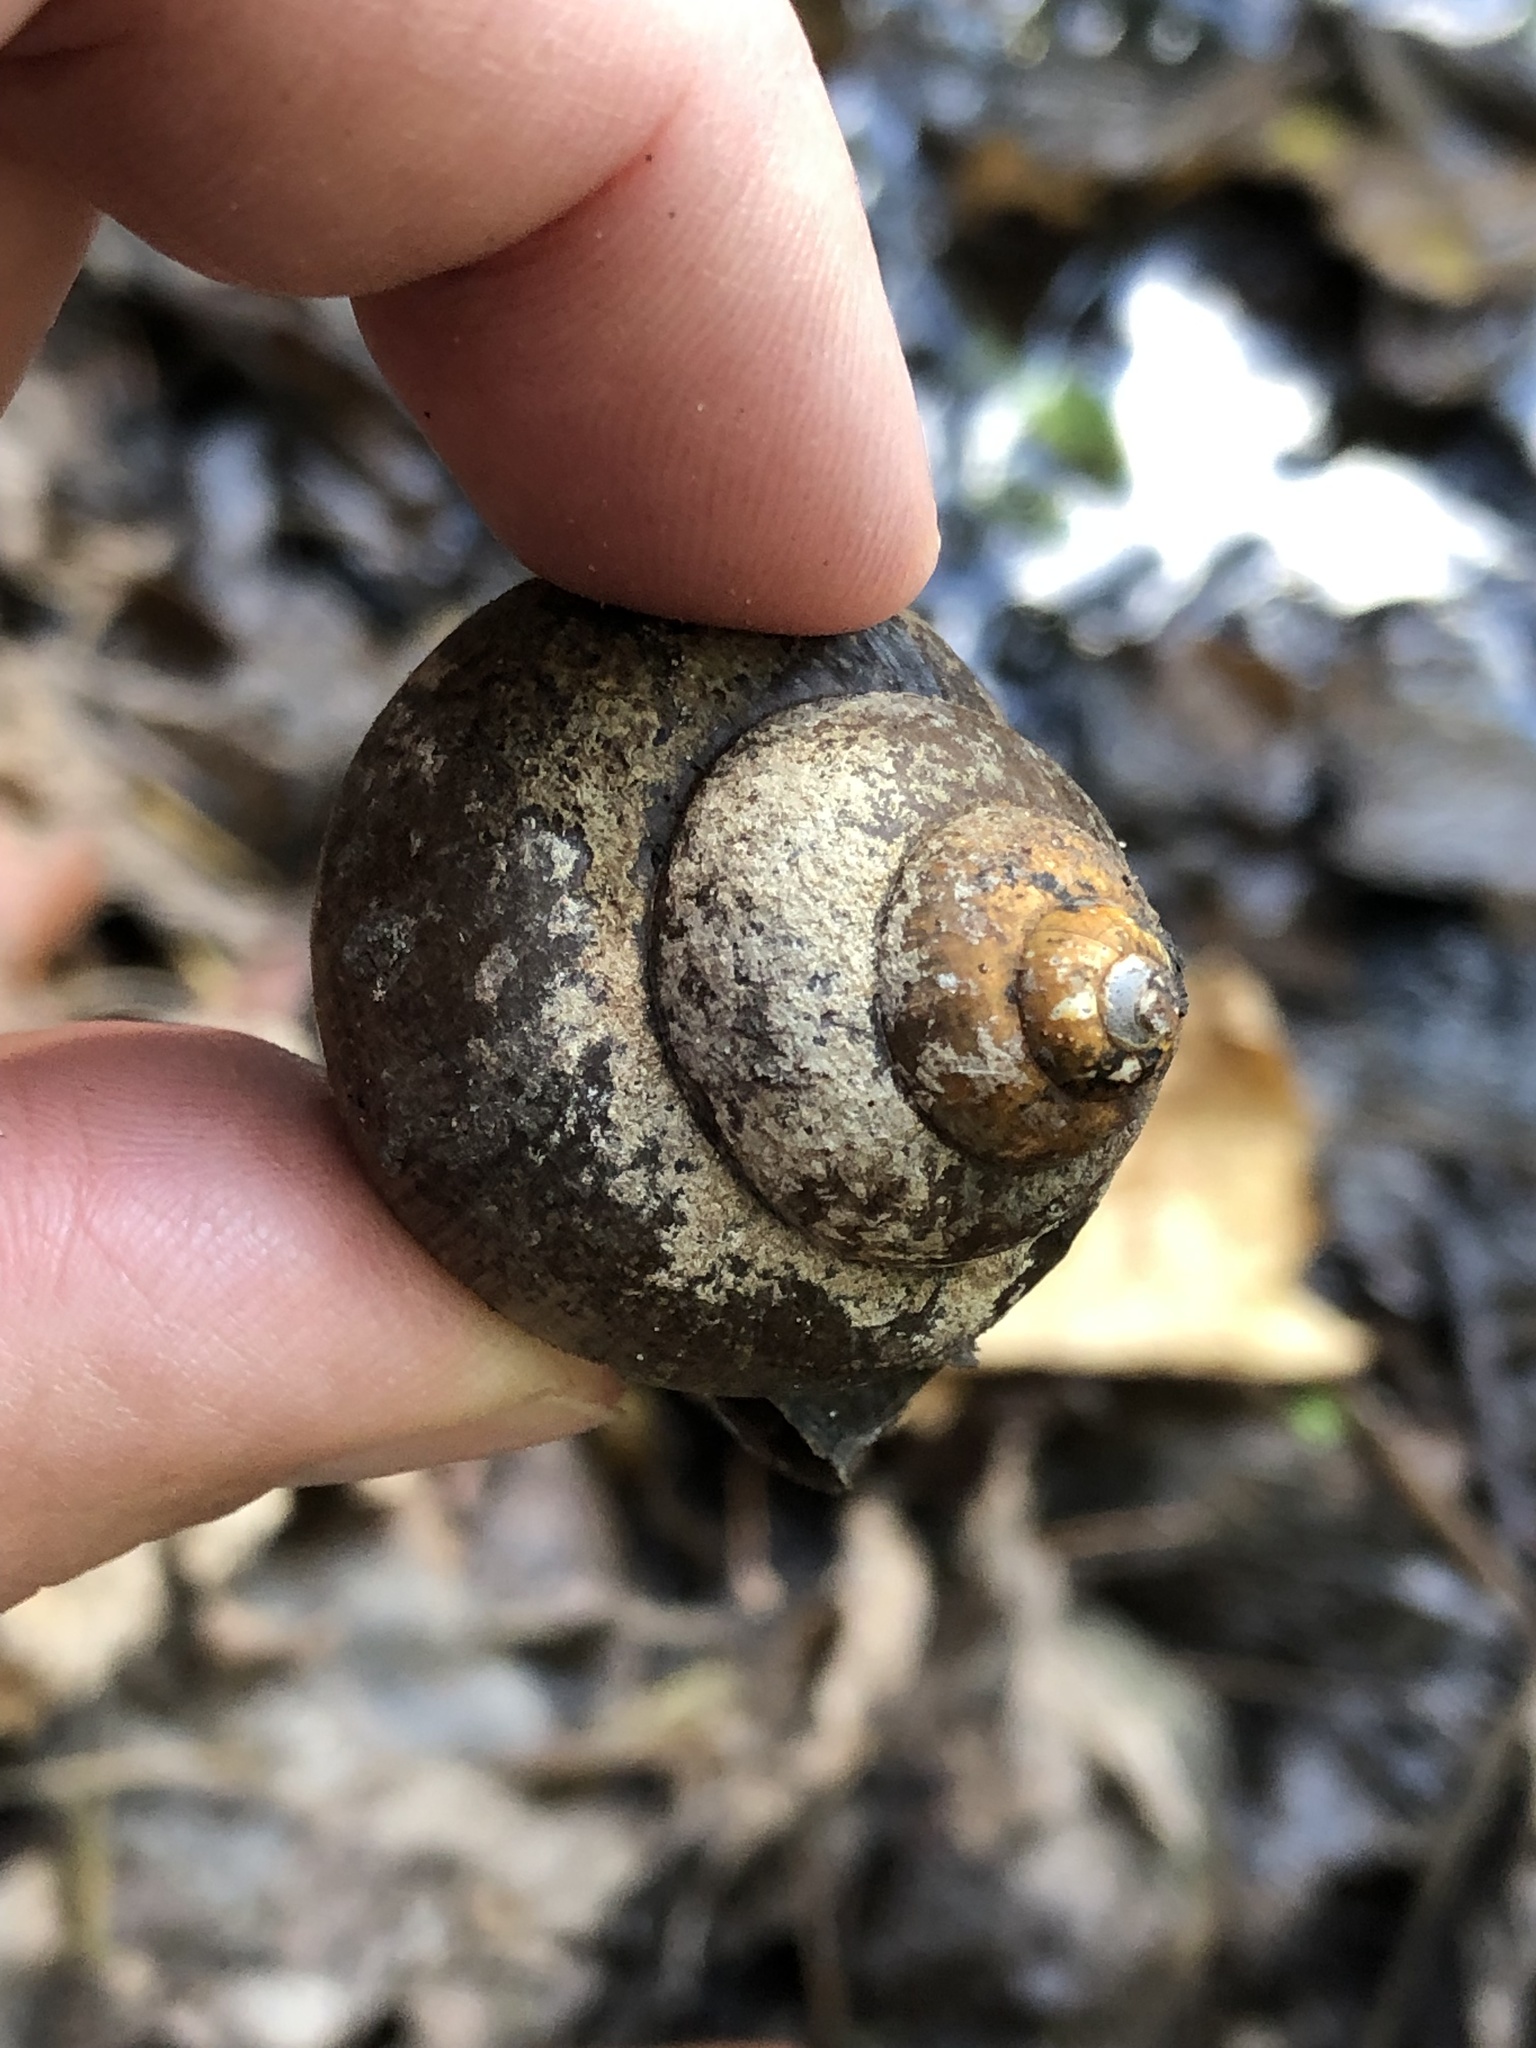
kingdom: Animalia
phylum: Mollusca
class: Gastropoda
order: Architaenioglossa
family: Viviparidae
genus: Cipangopaludina
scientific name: Cipangopaludina chinensis
